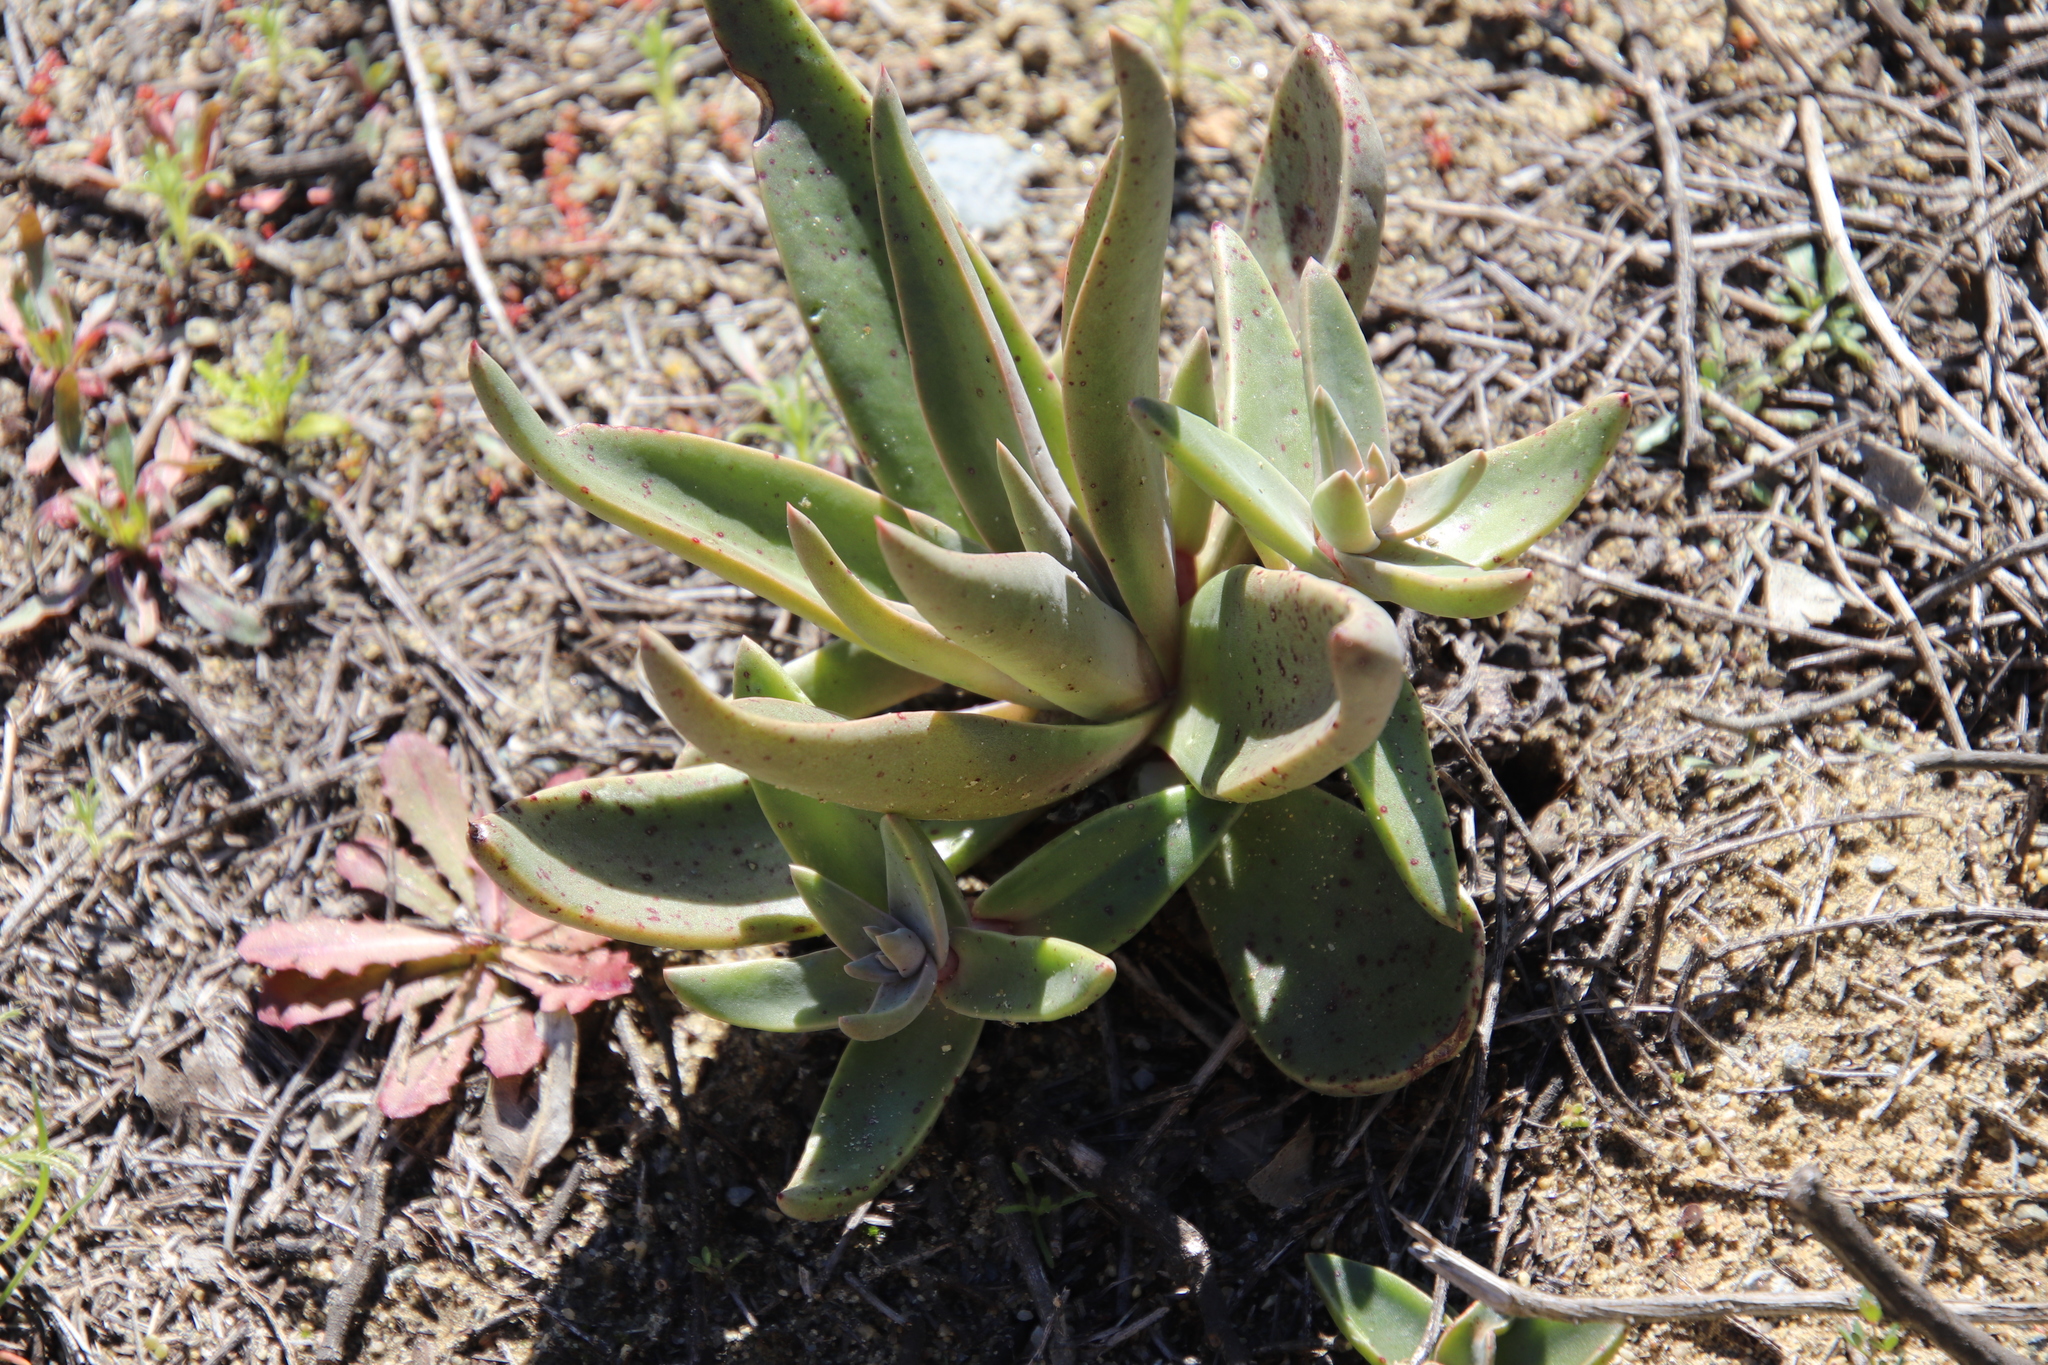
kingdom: Plantae
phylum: Tracheophyta
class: Magnoliopsida
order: Saxifragales
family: Crassulaceae
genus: Dudleya
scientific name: Dudleya lanceolata
